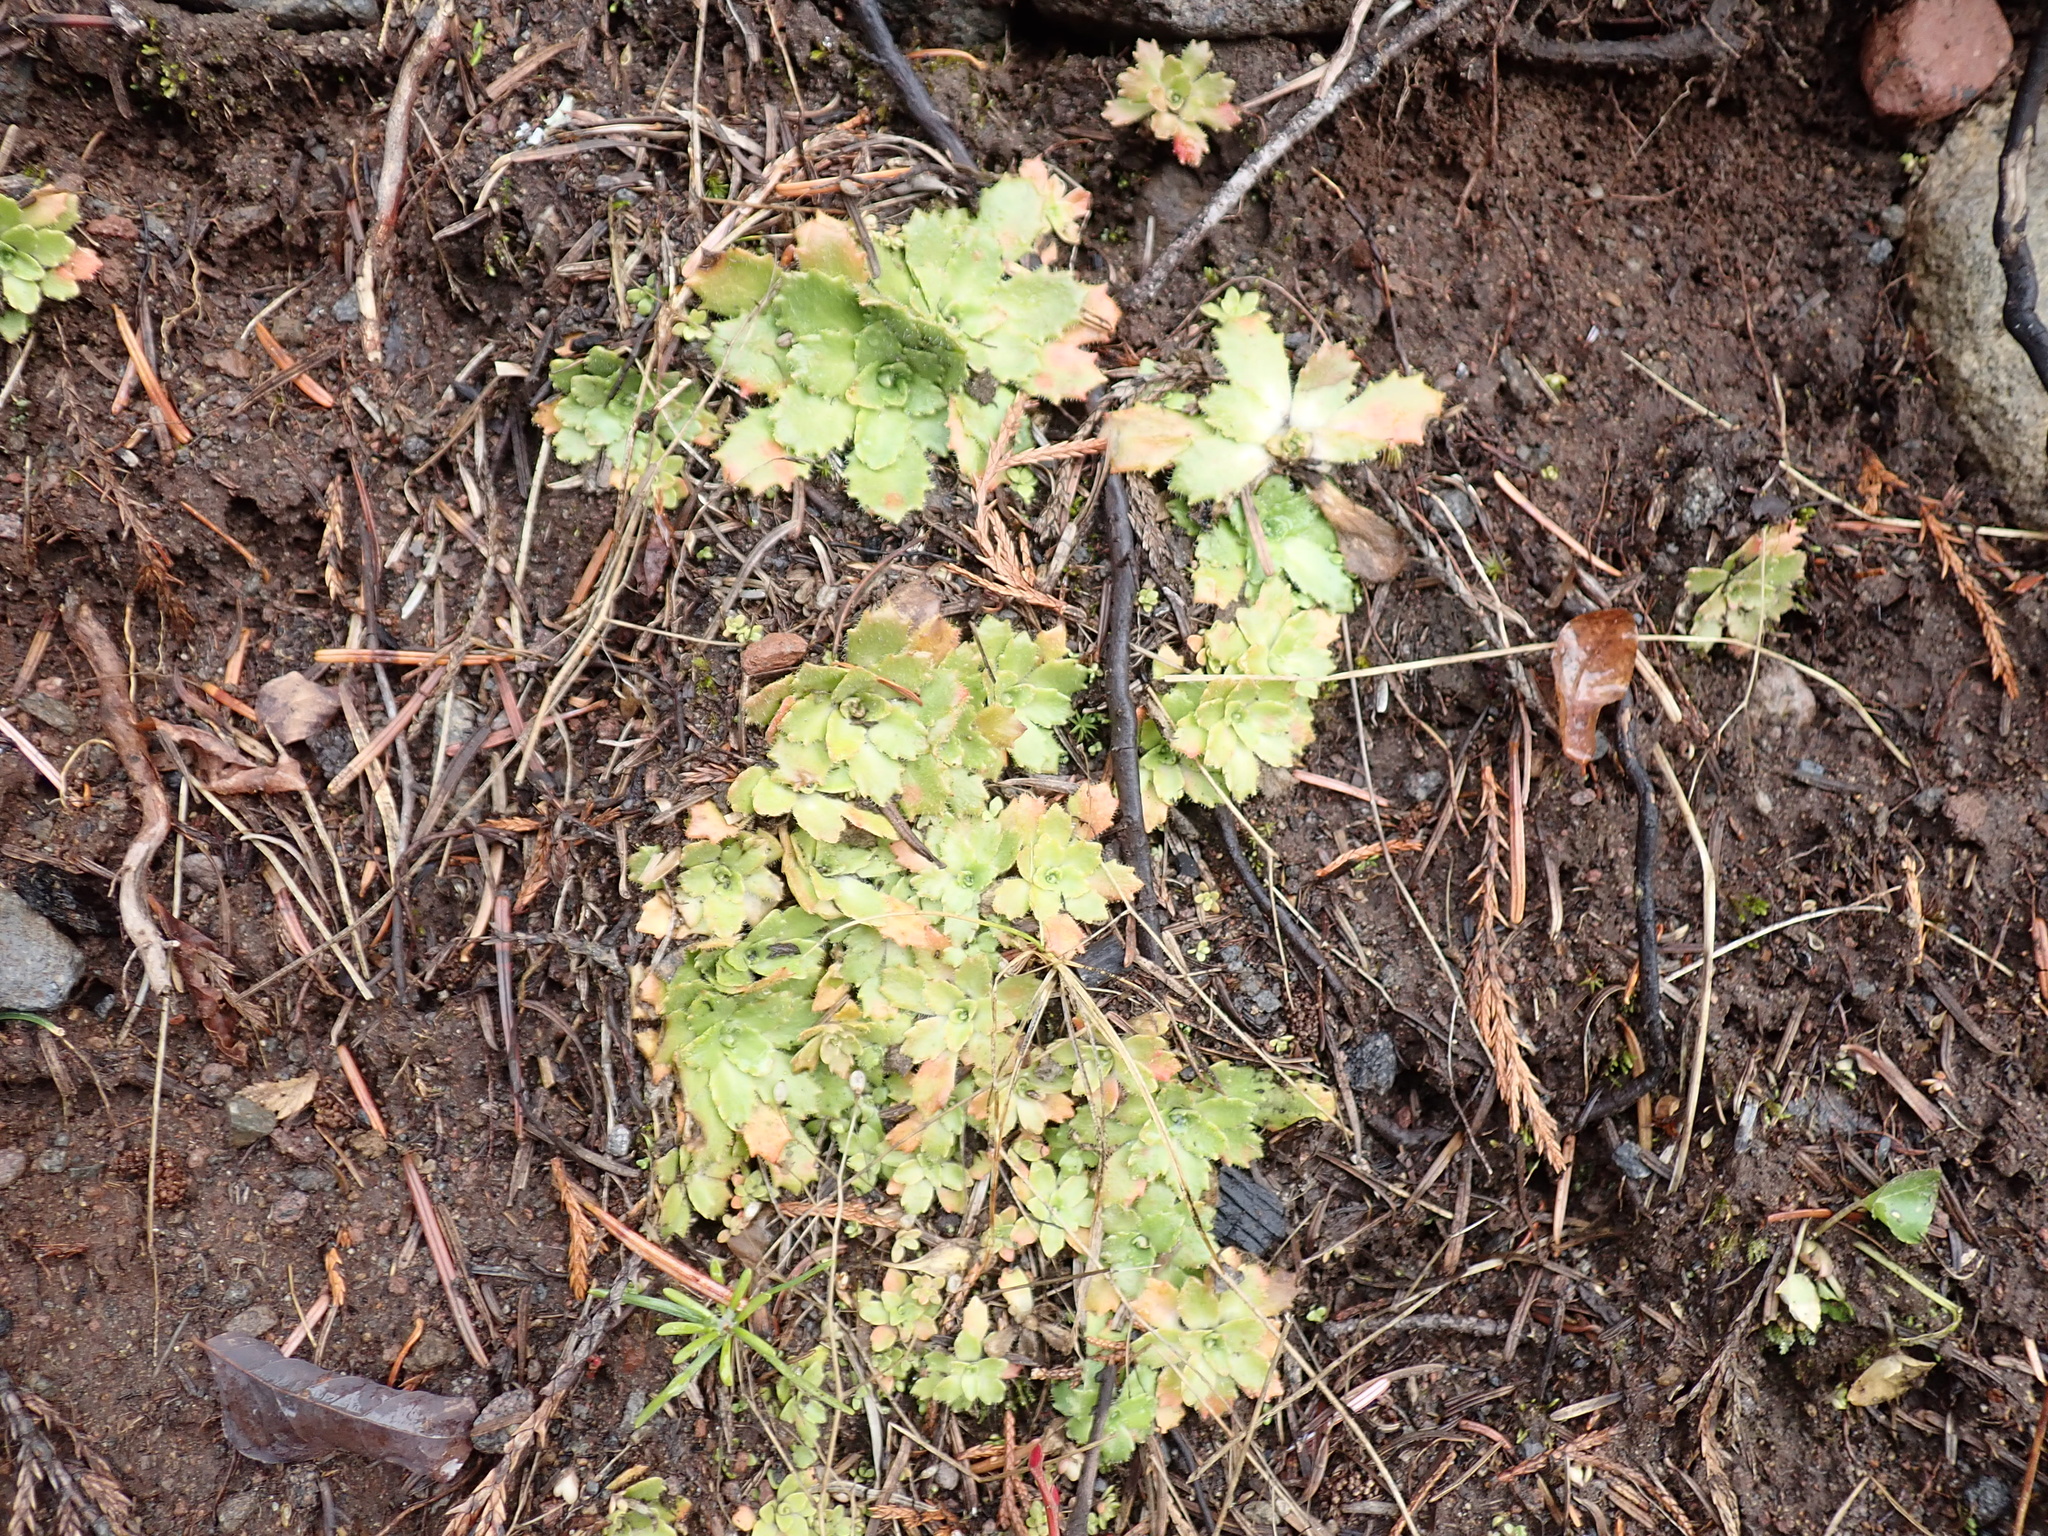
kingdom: Plantae
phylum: Tracheophyta
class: Magnoliopsida
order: Saxifragales
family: Saxifragaceae
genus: Micranthes
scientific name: Micranthes ferruginea
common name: Rusty saxifrage
